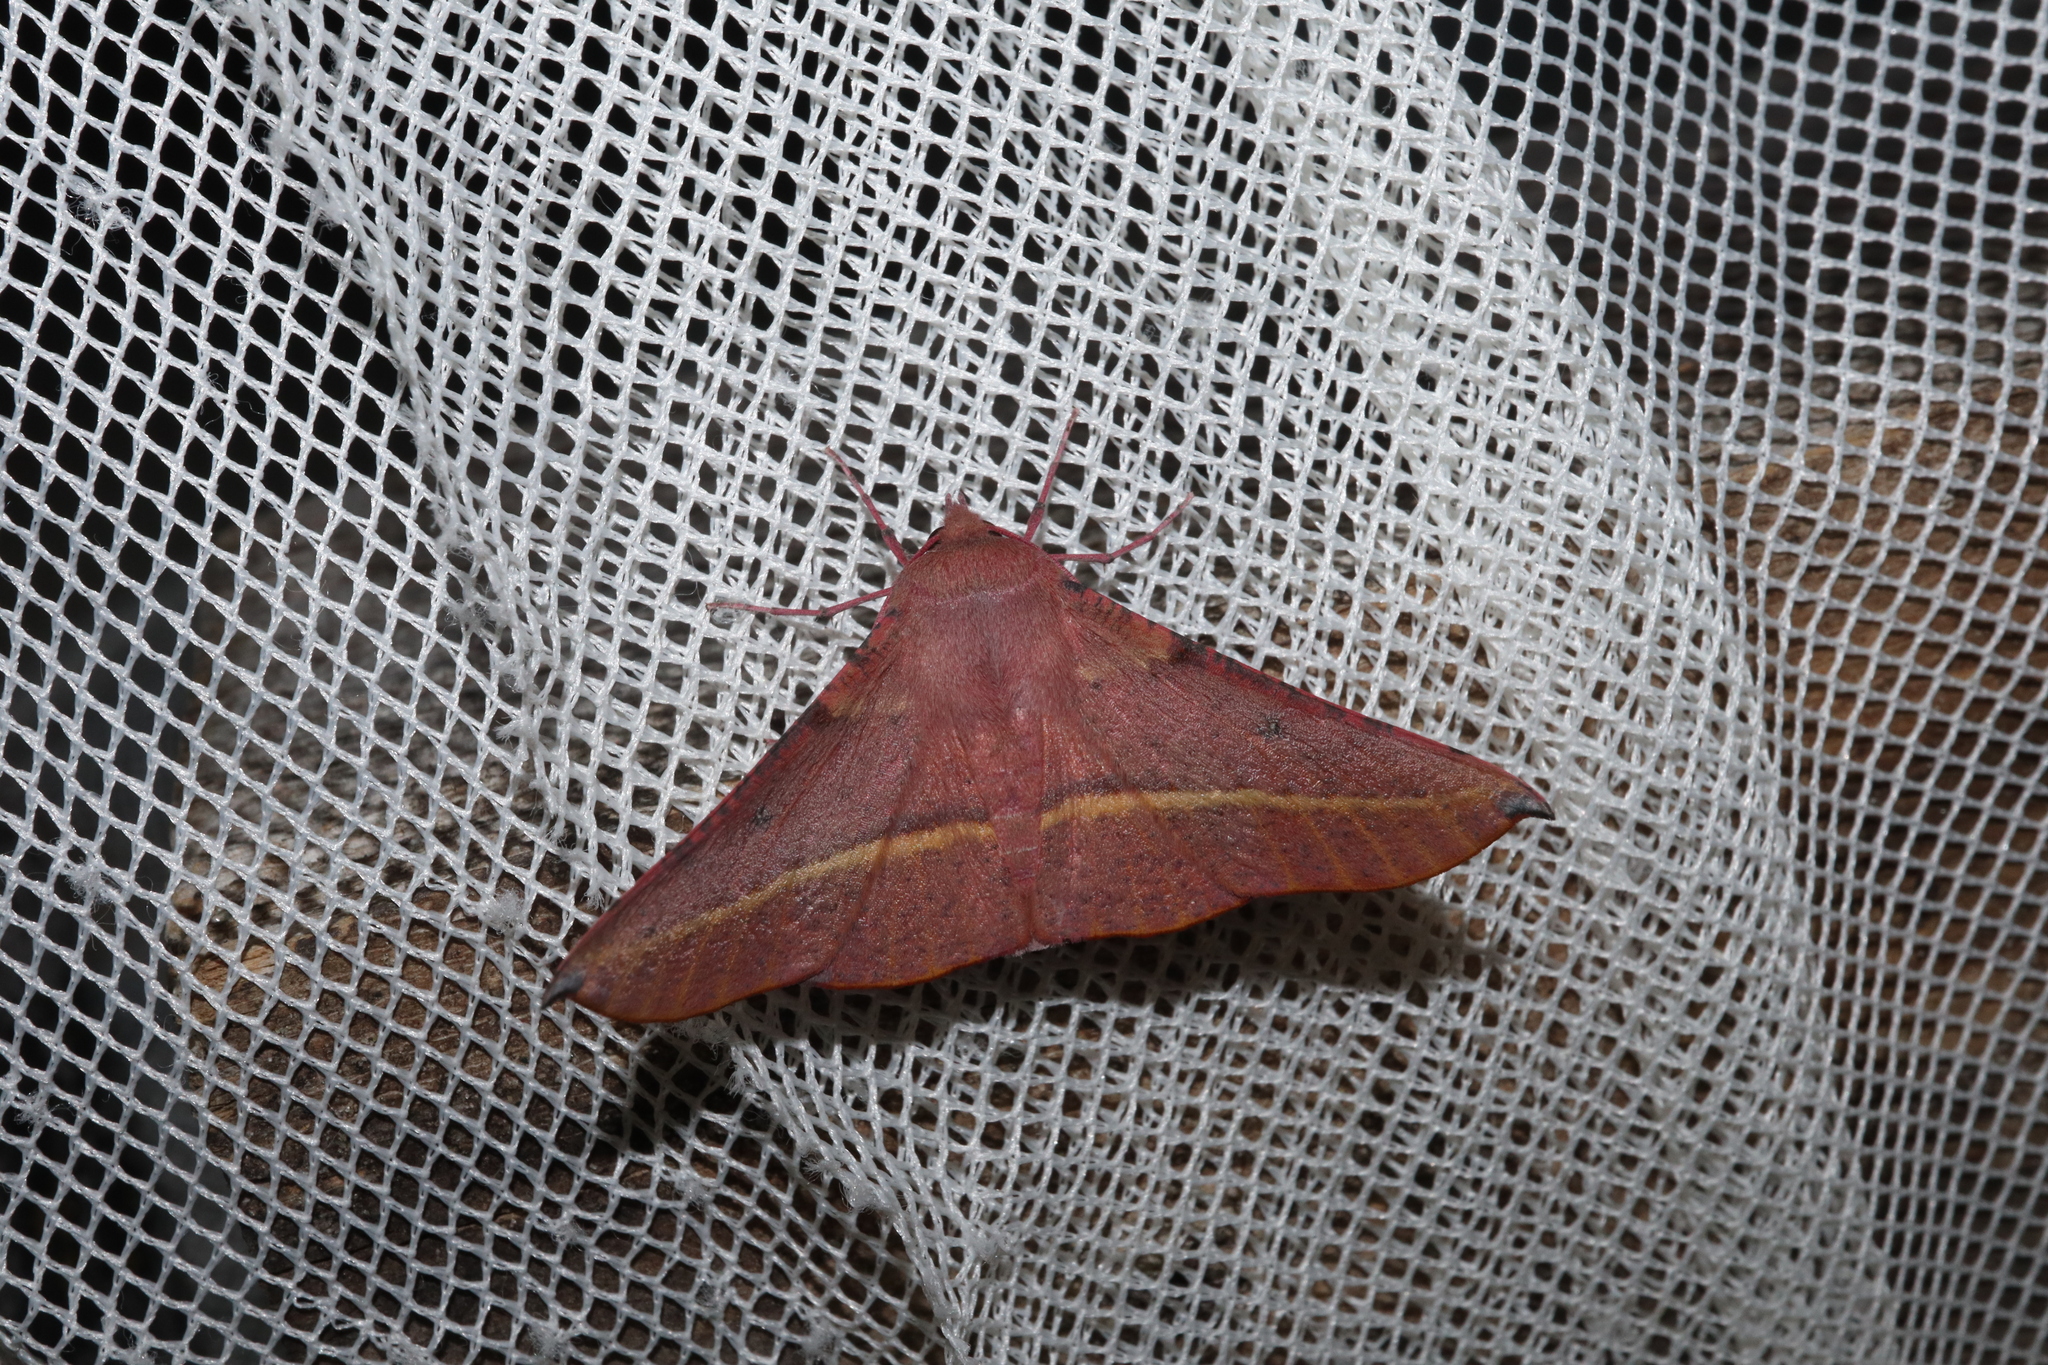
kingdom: Animalia
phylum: Arthropoda
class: Insecta
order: Lepidoptera
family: Geometridae
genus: Oenochroma
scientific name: Oenochroma vinaria
